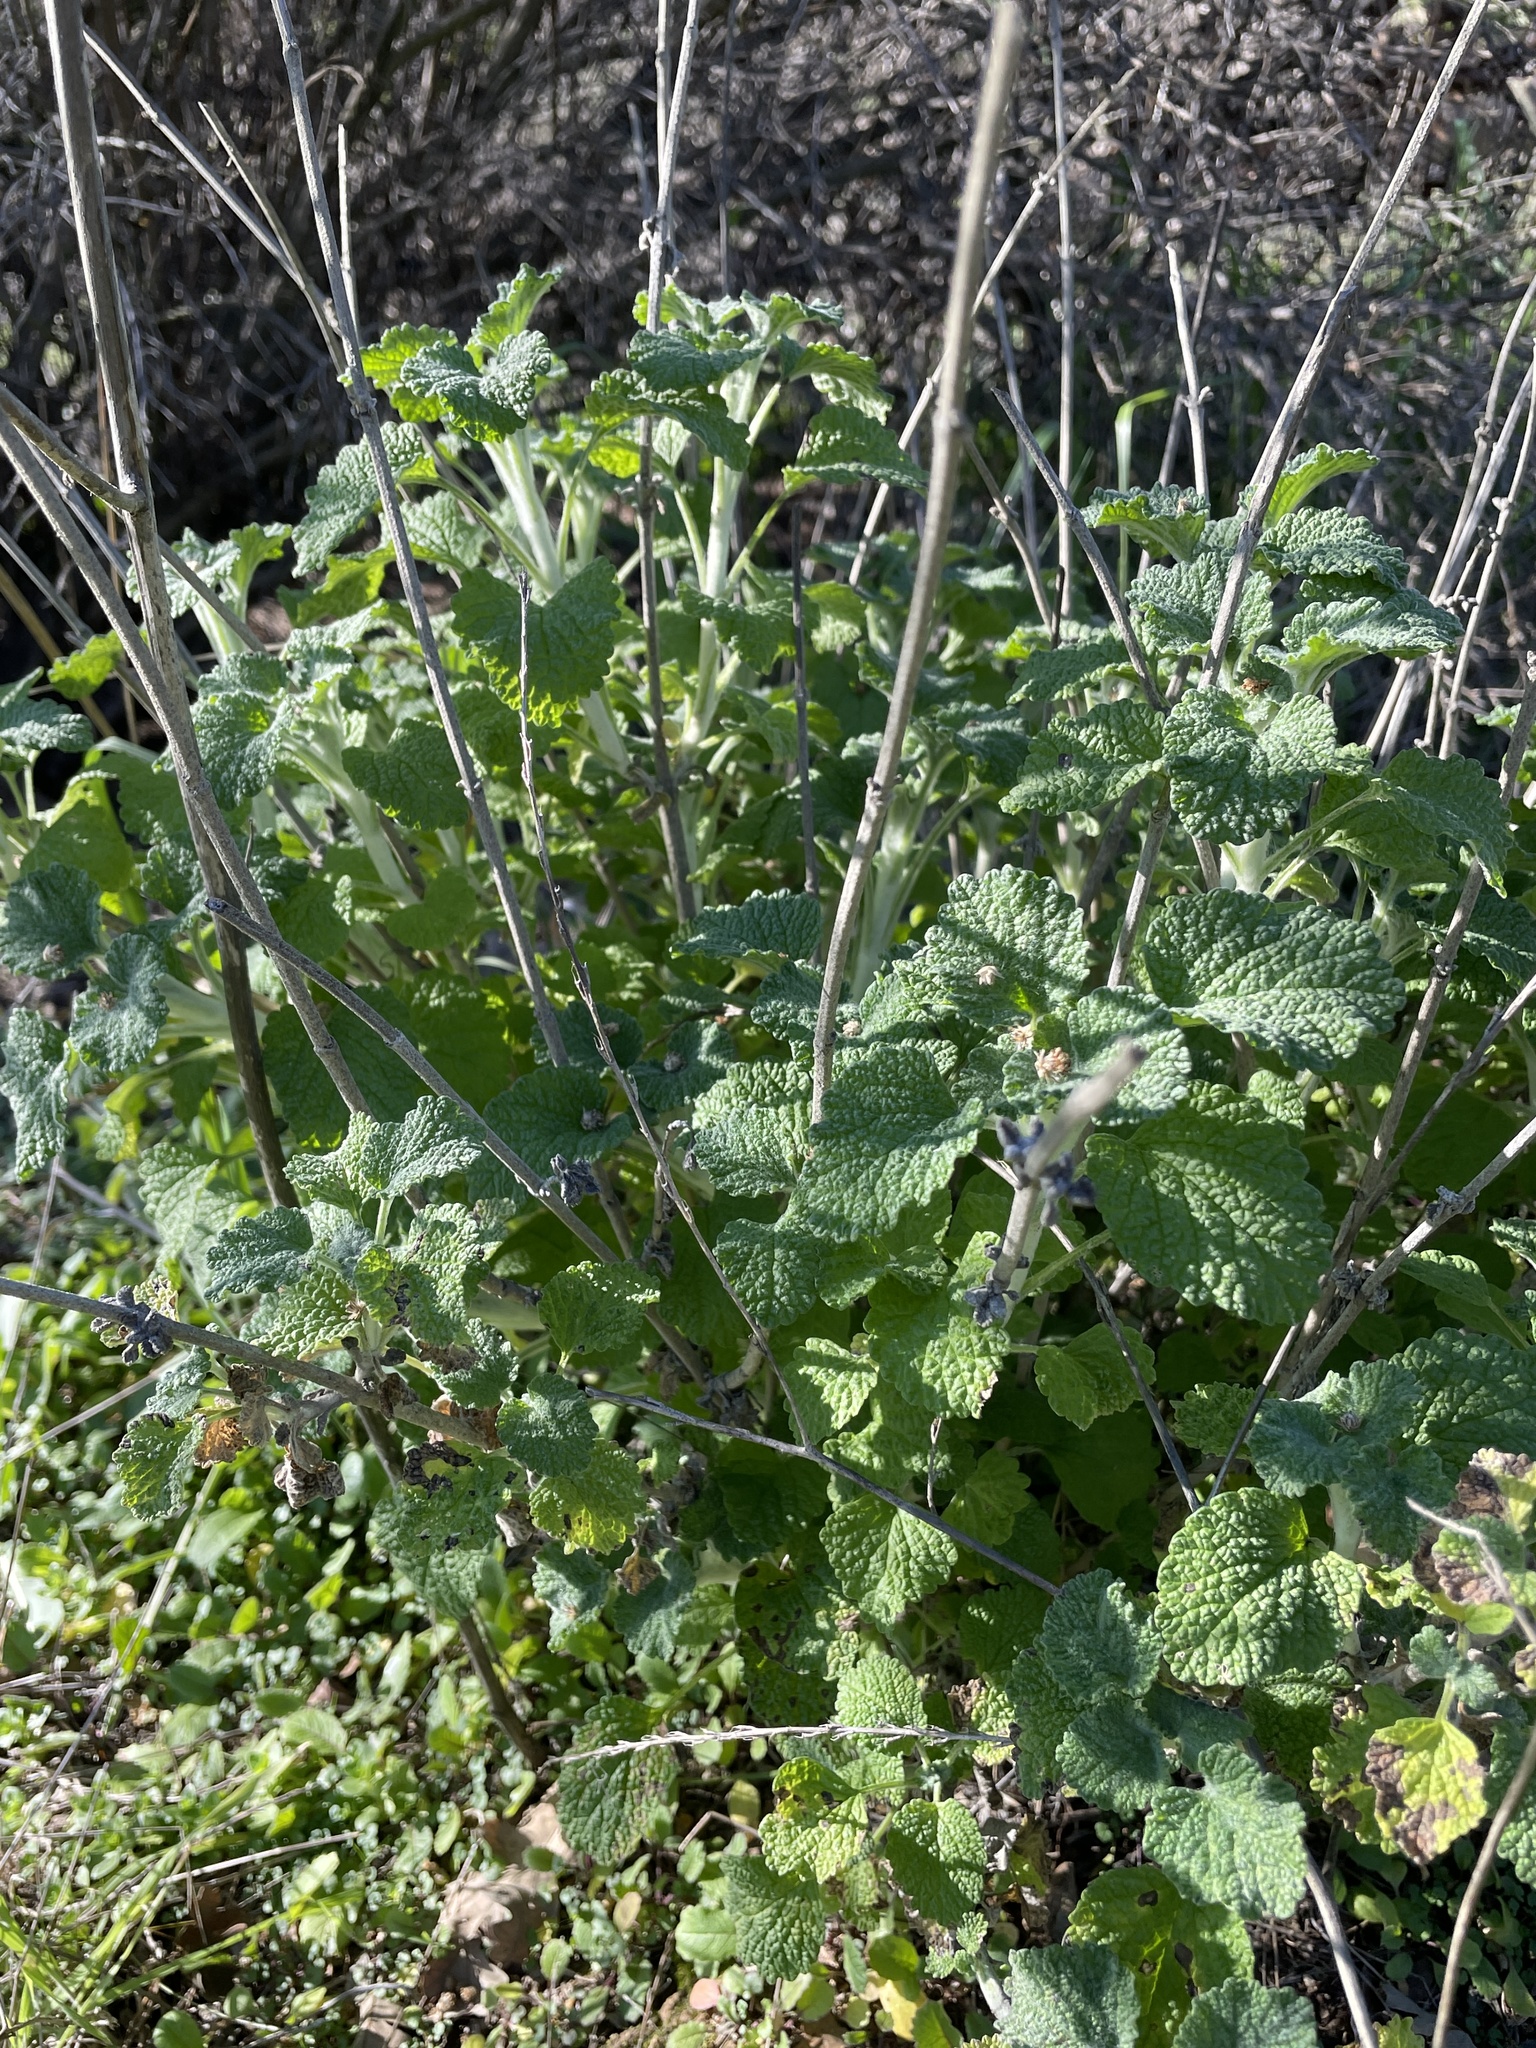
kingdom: Plantae
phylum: Tracheophyta
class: Magnoliopsida
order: Lamiales
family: Lamiaceae
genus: Marrubium
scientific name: Marrubium vulgare
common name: Horehound
